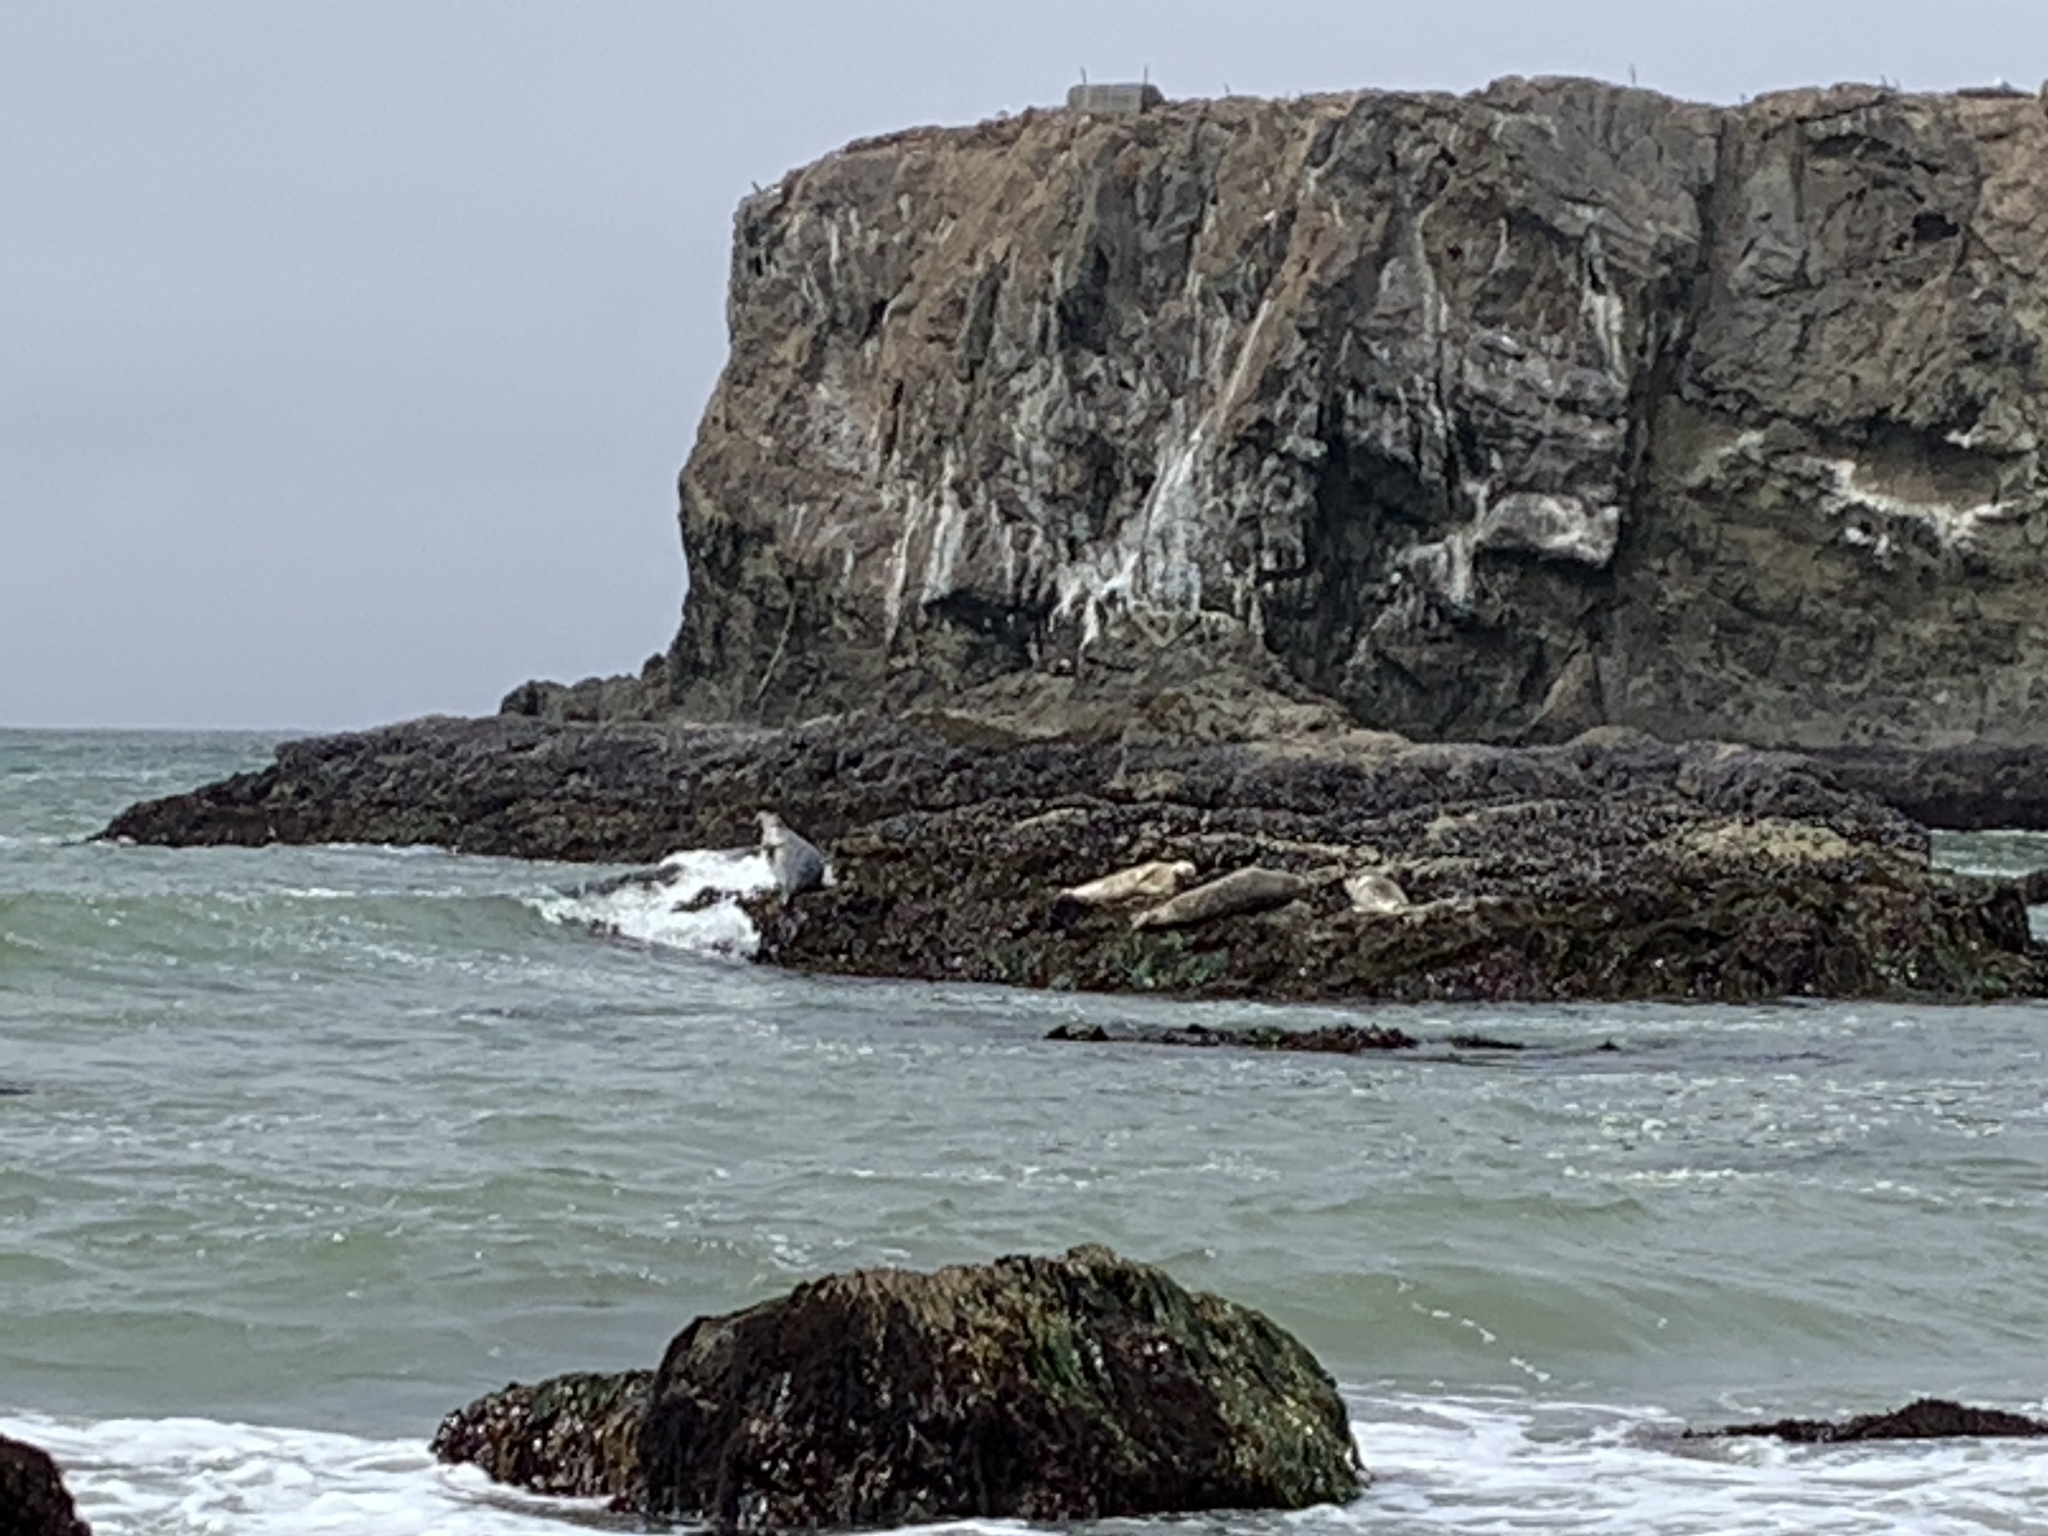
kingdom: Animalia
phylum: Chordata
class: Mammalia
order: Carnivora
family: Phocidae
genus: Phoca
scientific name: Phoca vitulina
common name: Harbor seal
